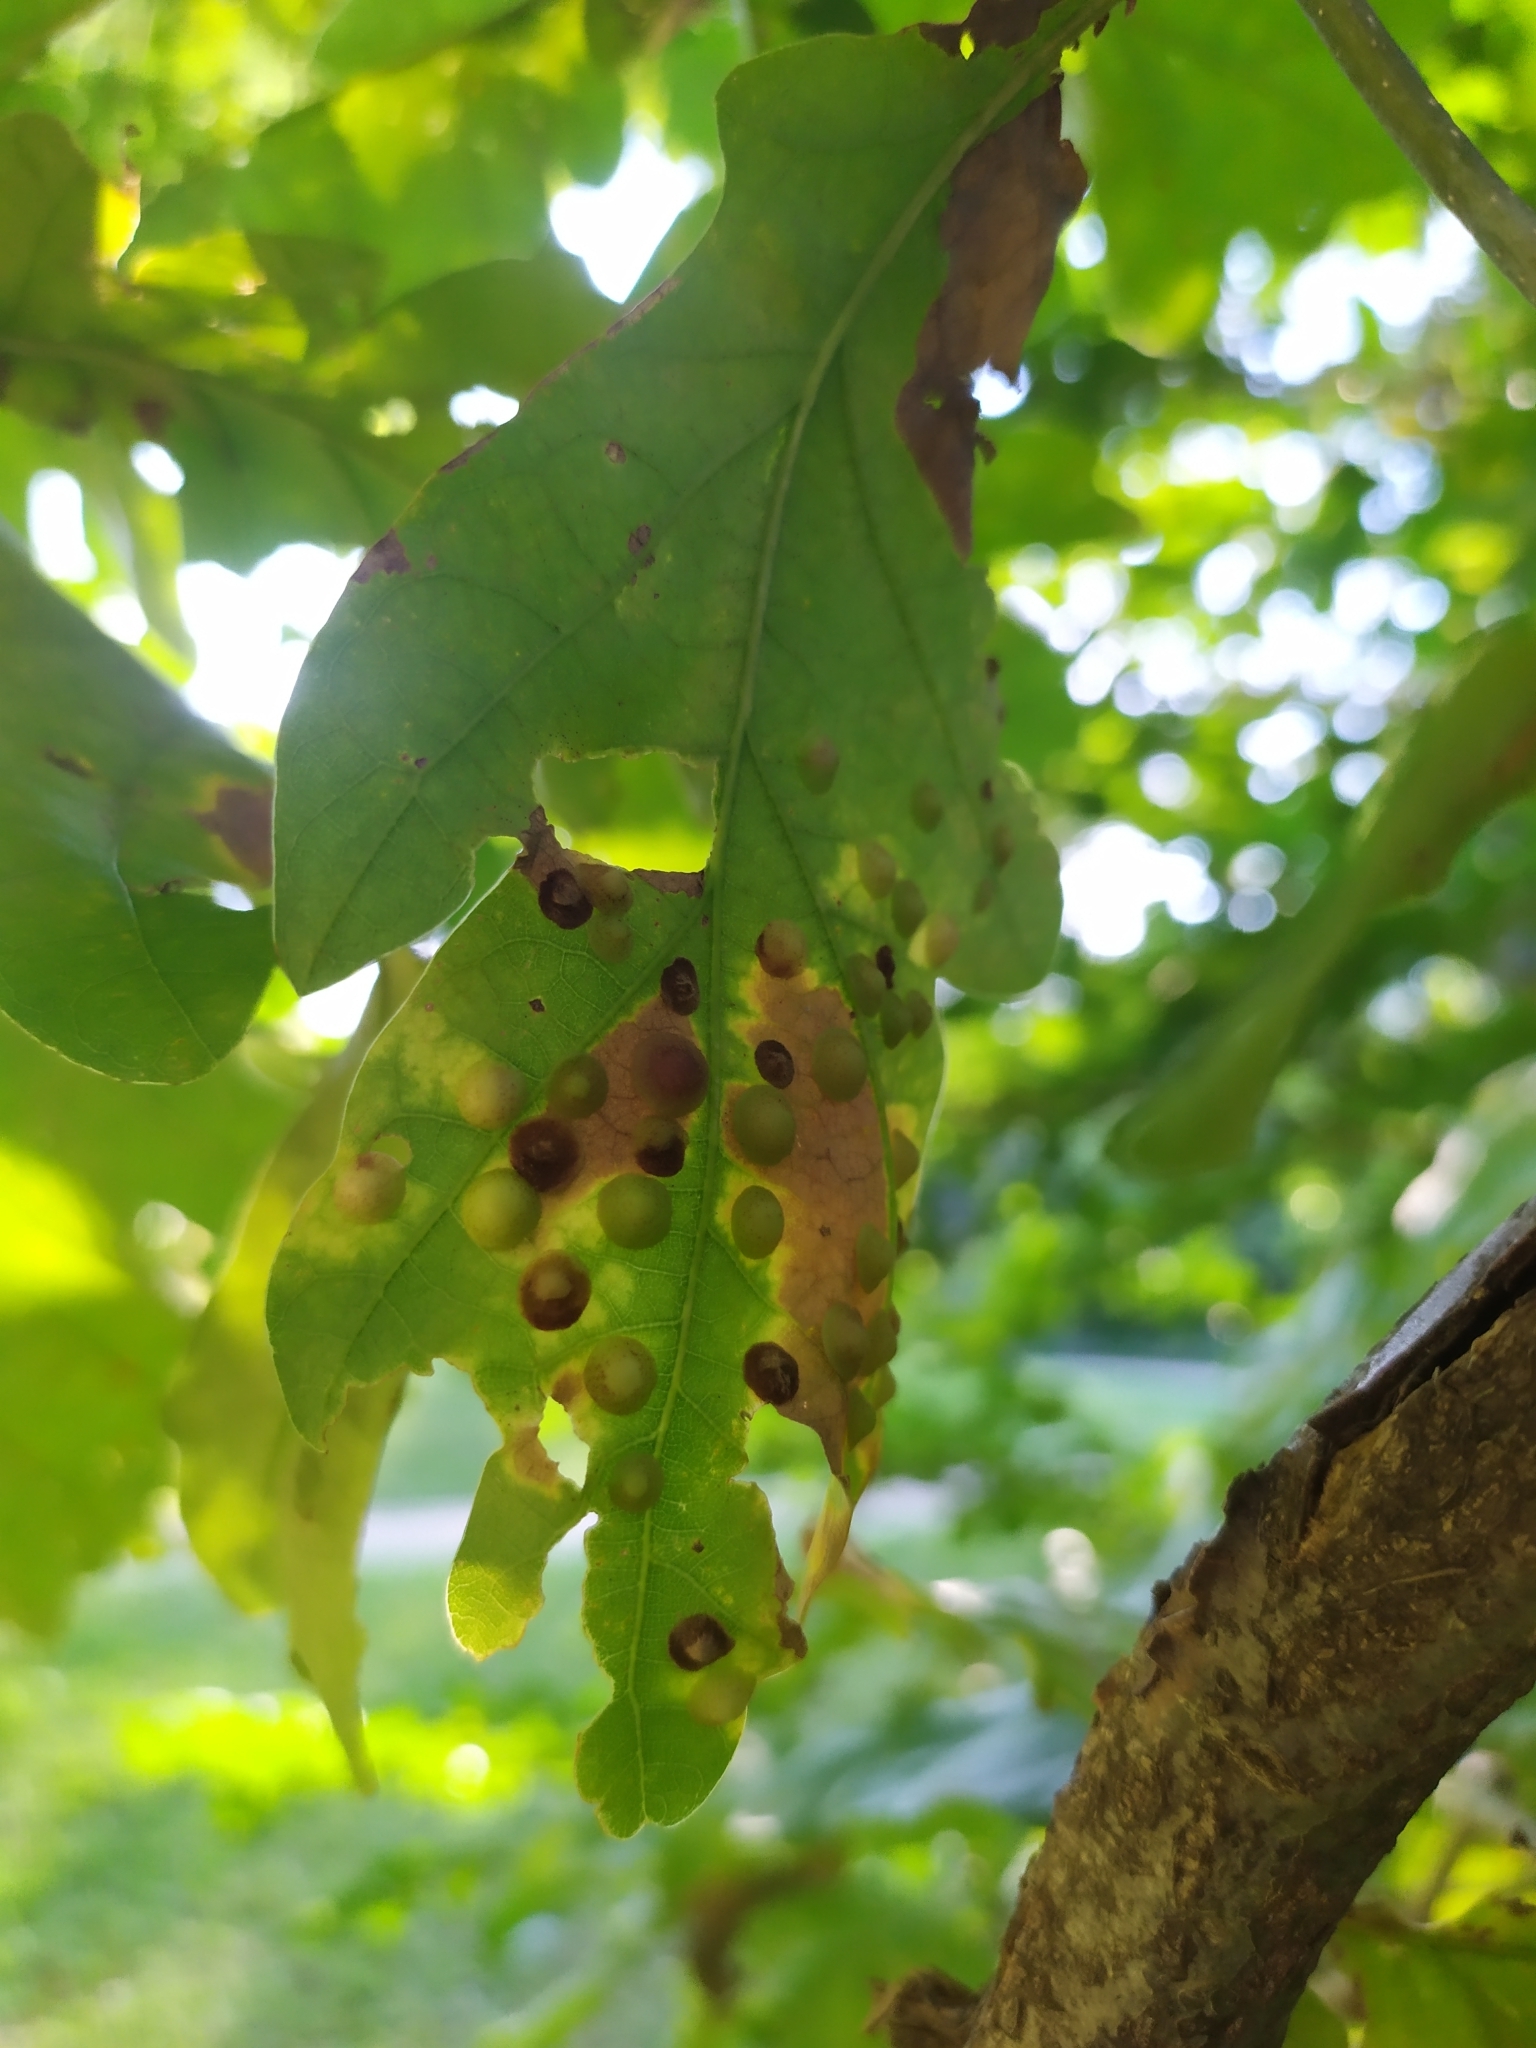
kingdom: Animalia
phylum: Arthropoda
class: Insecta
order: Hymenoptera
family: Cynipidae
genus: Neuroterus
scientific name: Neuroterus quercusbaccarum
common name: Common spangle gall
